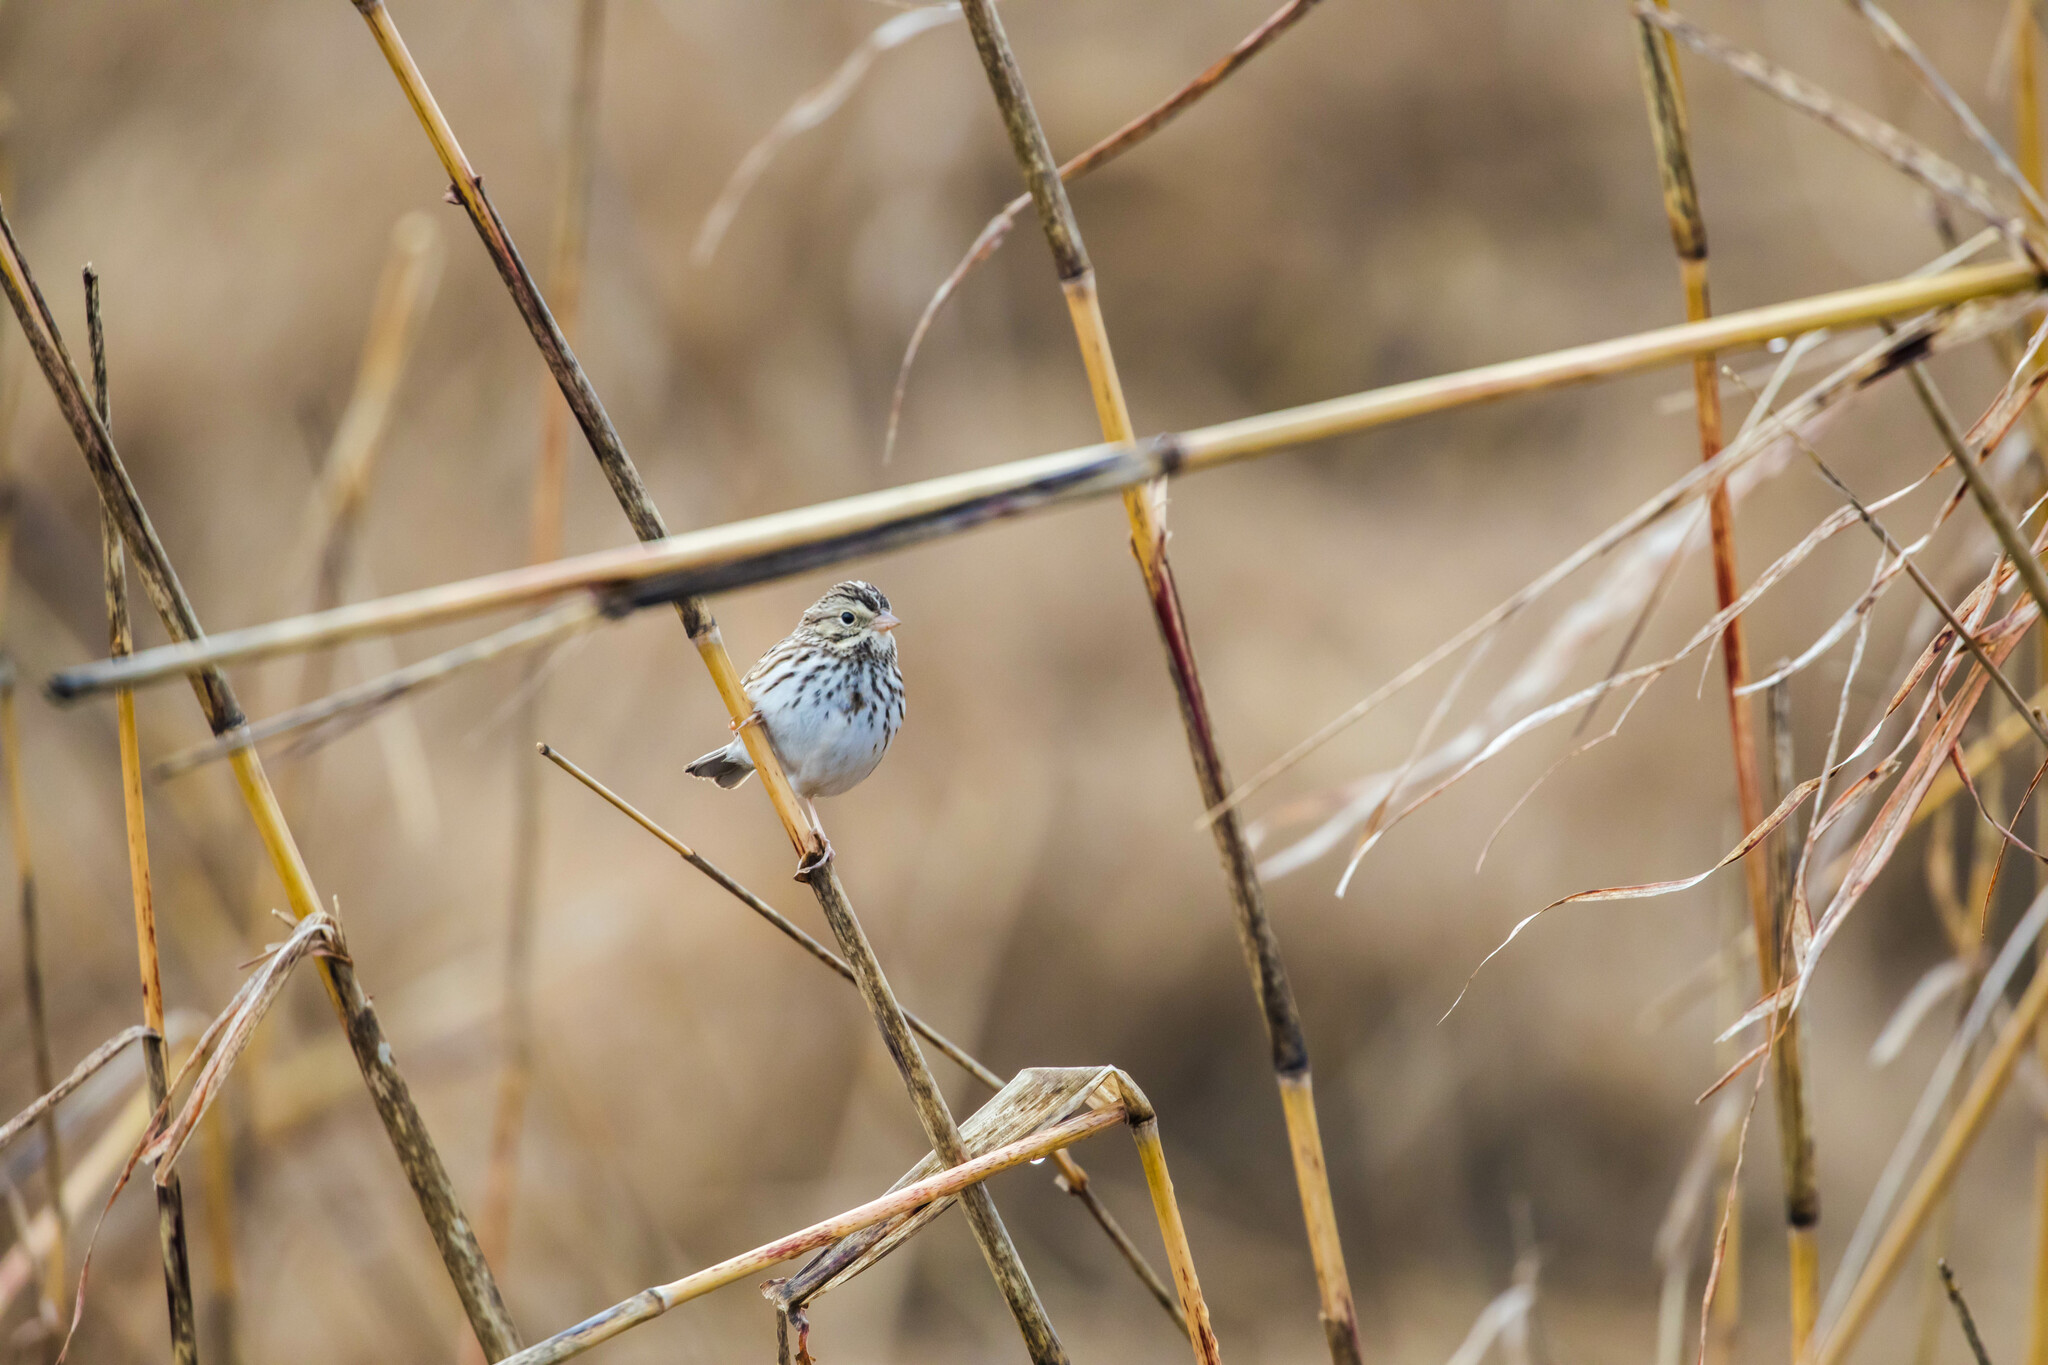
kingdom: Animalia
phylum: Chordata
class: Aves
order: Passeriformes
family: Passerellidae
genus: Passerculus
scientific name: Passerculus sandwichensis
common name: Savannah sparrow
